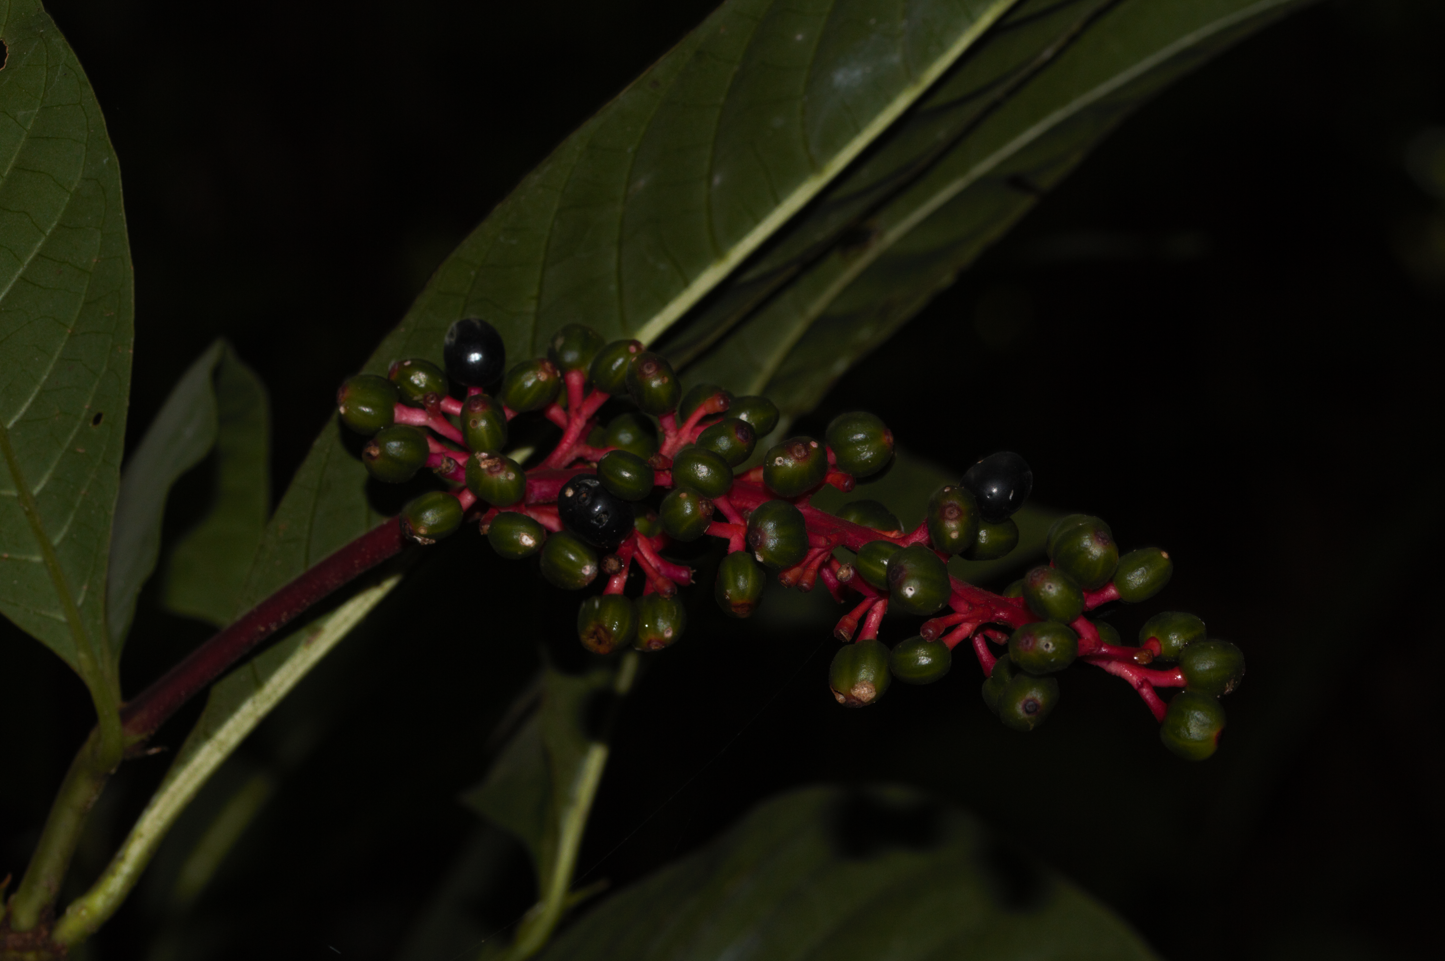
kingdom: Plantae
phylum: Tracheophyta
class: Magnoliopsida
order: Gentianales
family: Rubiaceae
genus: Palicourea
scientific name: Palicourea calophylla
